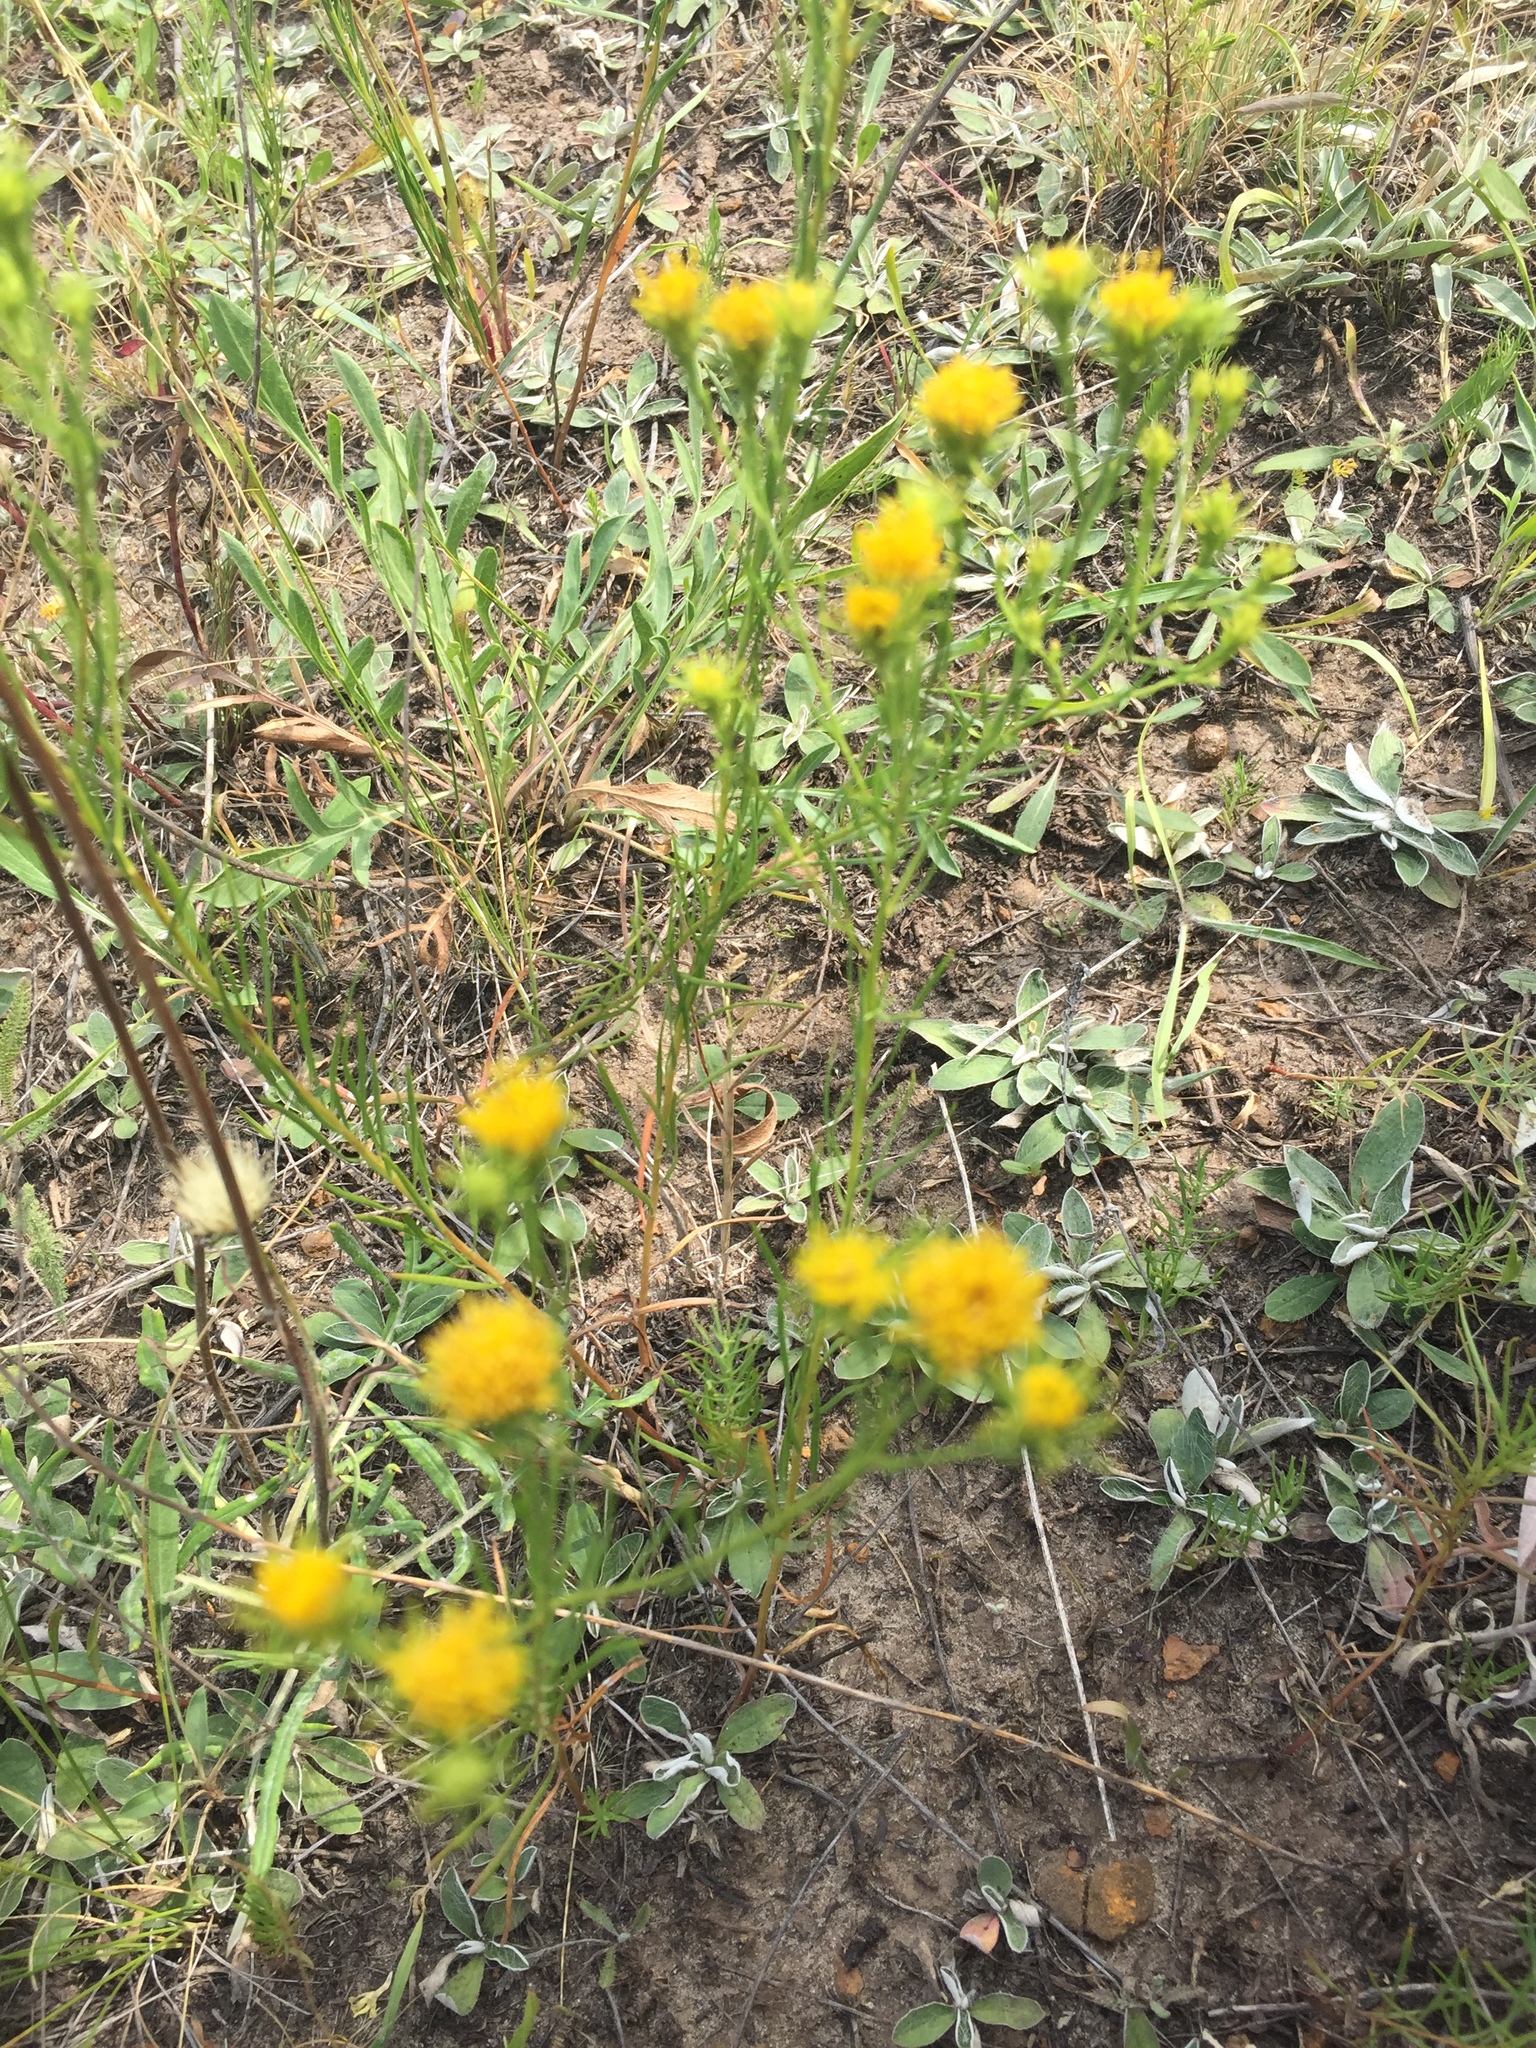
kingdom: Plantae
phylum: Tracheophyta
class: Magnoliopsida
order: Asterales
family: Asteraceae
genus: Galatella
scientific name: Galatella linosyris
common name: Goldilocks aster
